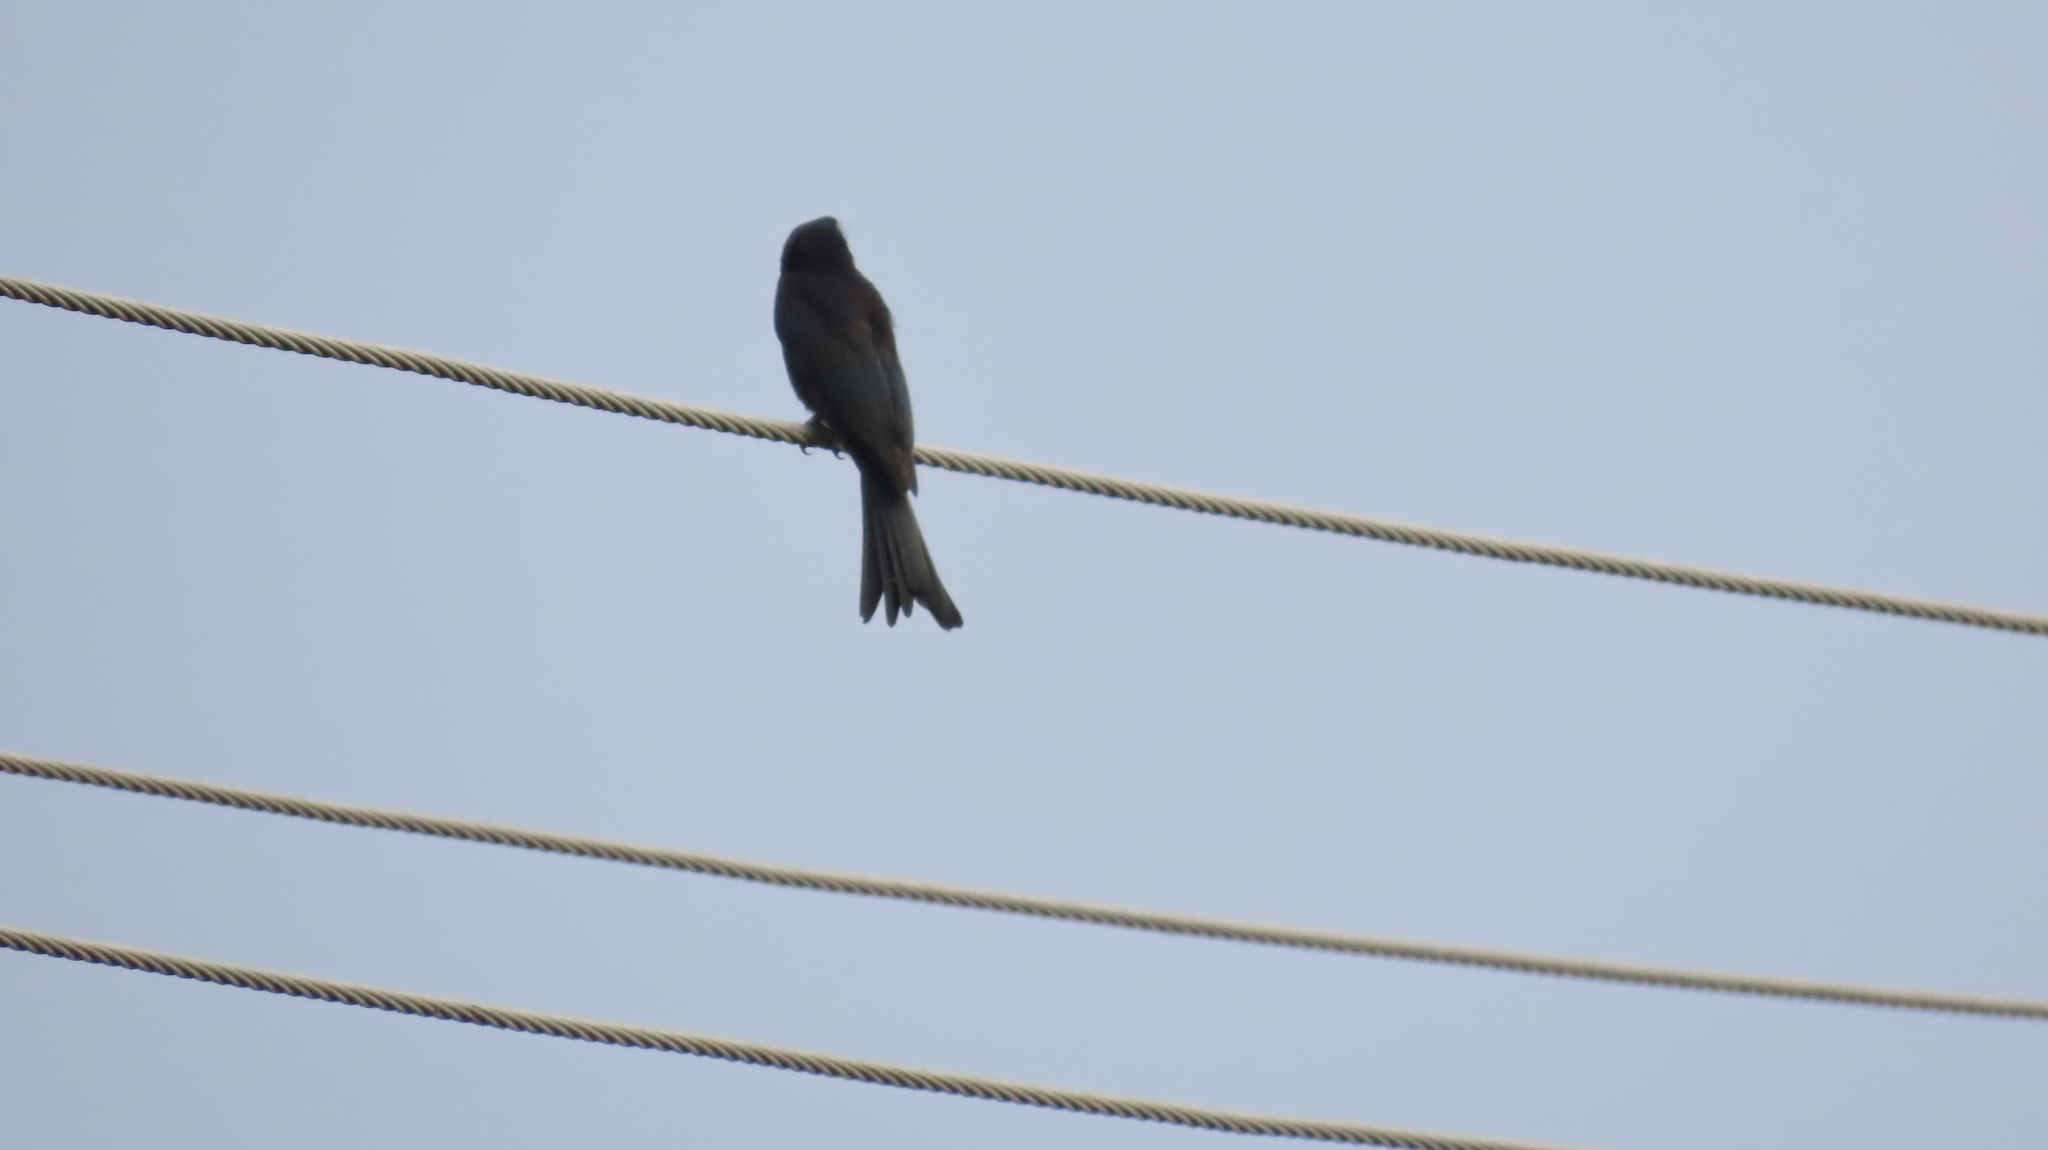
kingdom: Animalia
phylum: Chordata
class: Aves
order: Passeriformes
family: Dicruridae
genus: Dicrurus
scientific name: Dicrurus macrocercus
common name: Black drongo
